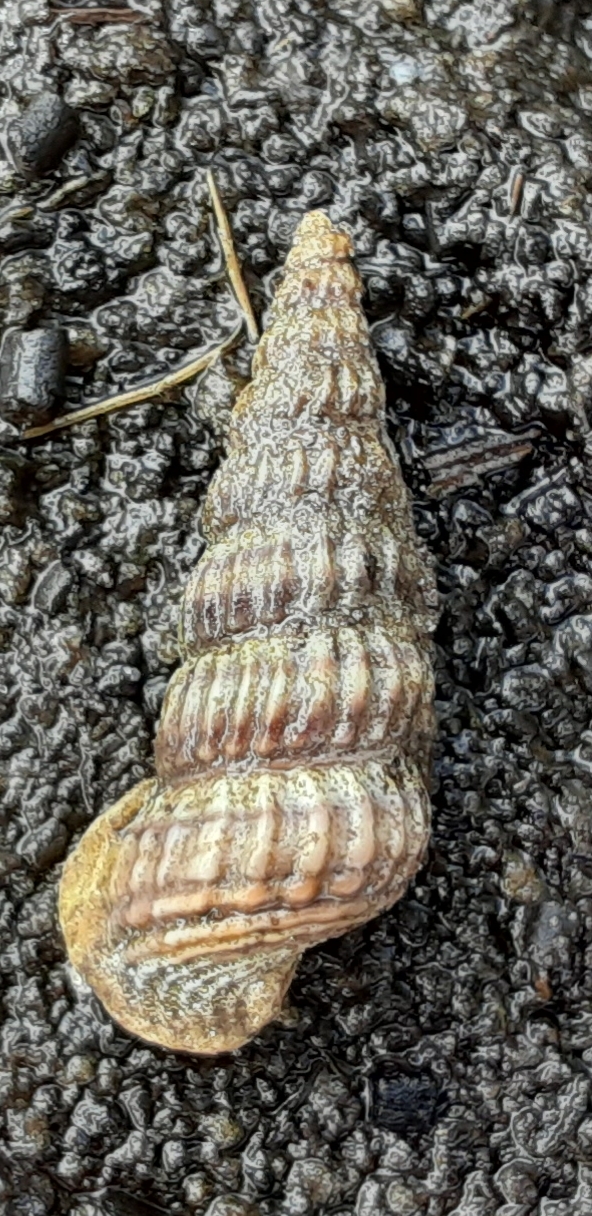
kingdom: Animalia
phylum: Mollusca
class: Gastropoda
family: Potamididae
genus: Cerithideopsis
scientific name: Cerithideopsis scalariformis
